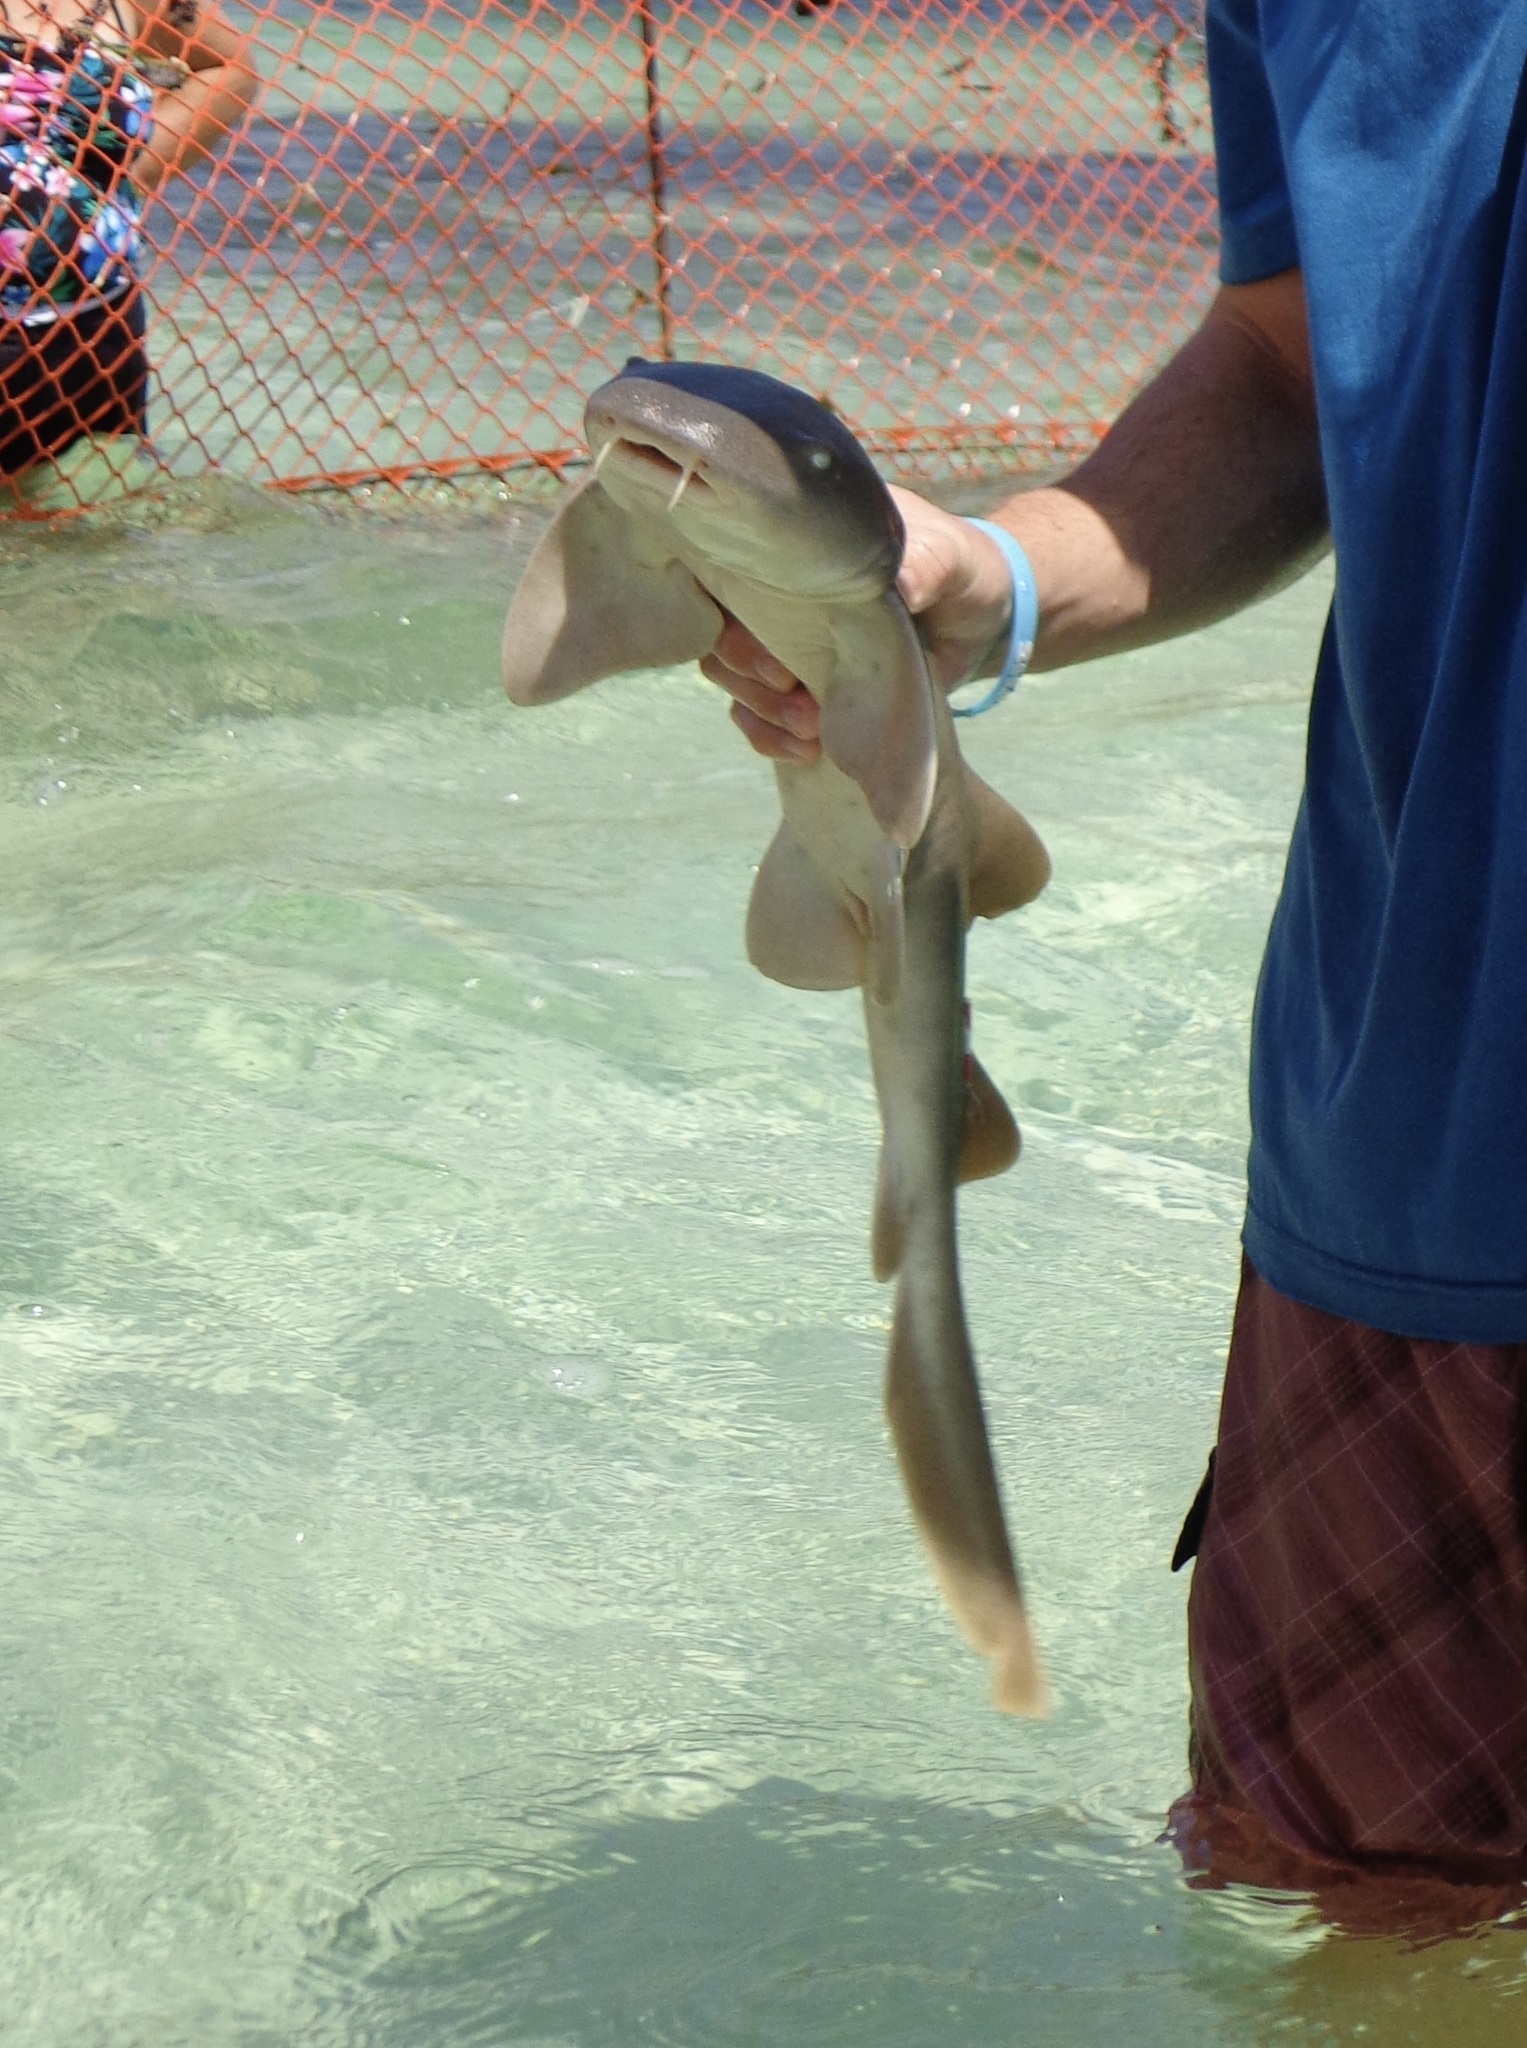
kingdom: Animalia
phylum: Chordata
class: Elasmobranchii
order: Orectolobiformes
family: Ginglymostomatidae
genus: Ginglymostoma
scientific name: Ginglymostoma cirratum
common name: Nurse shark
